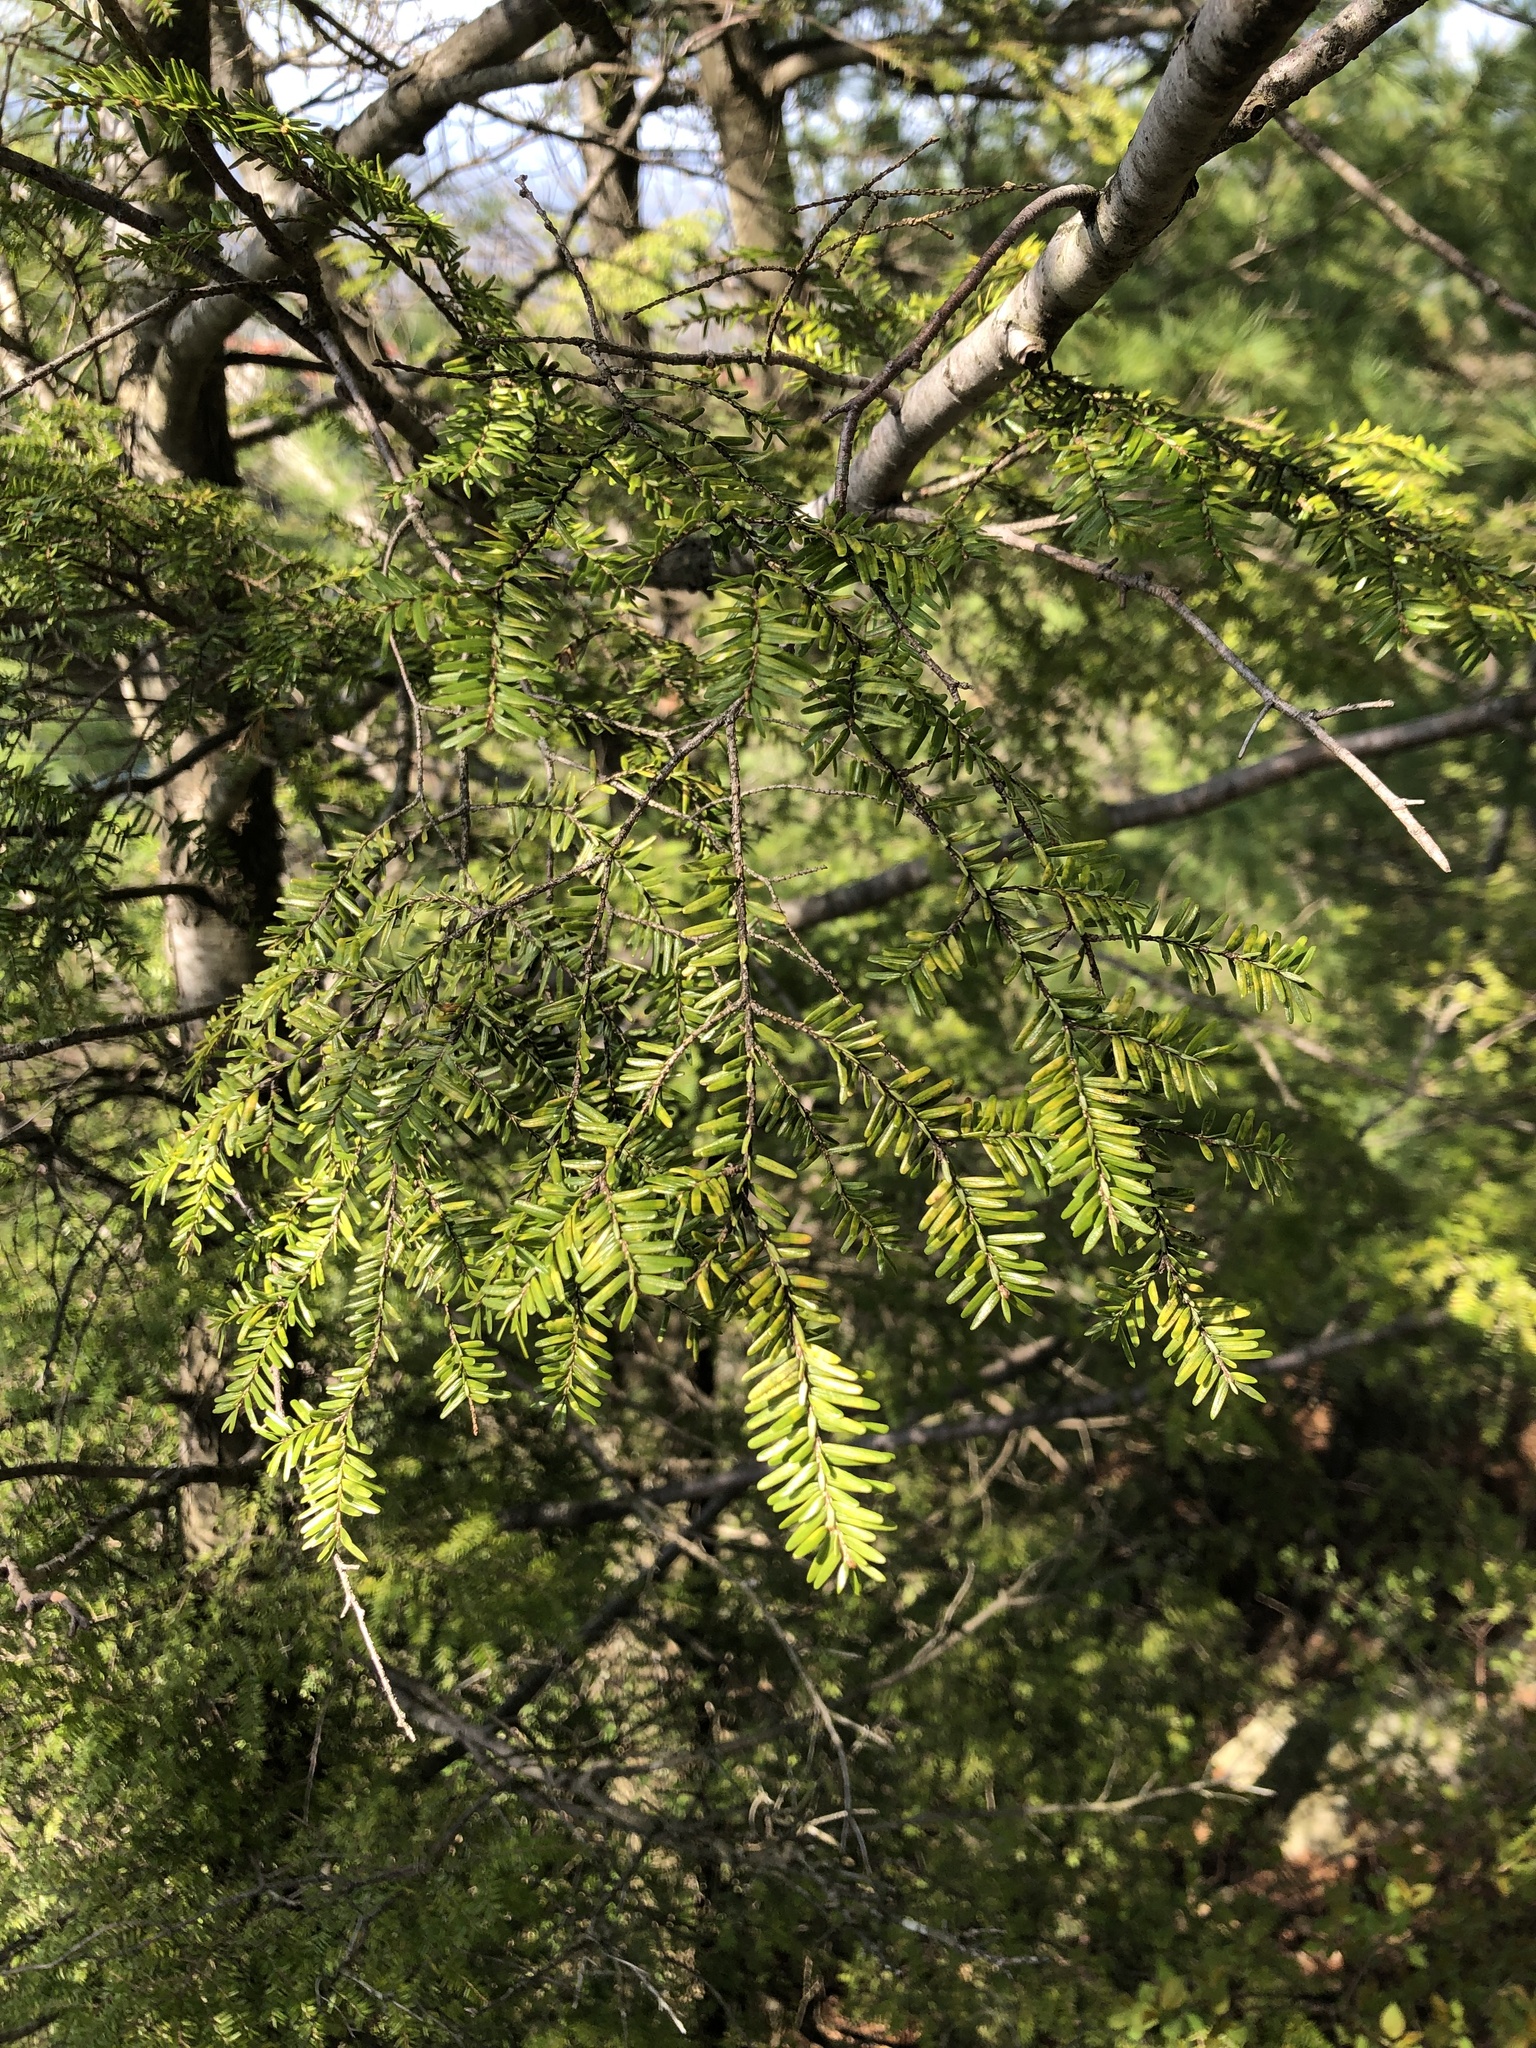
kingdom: Plantae
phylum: Tracheophyta
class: Pinopsida
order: Pinales
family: Pinaceae
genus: Tsuga
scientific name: Tsuga canadensis
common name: Eastern hemlock
